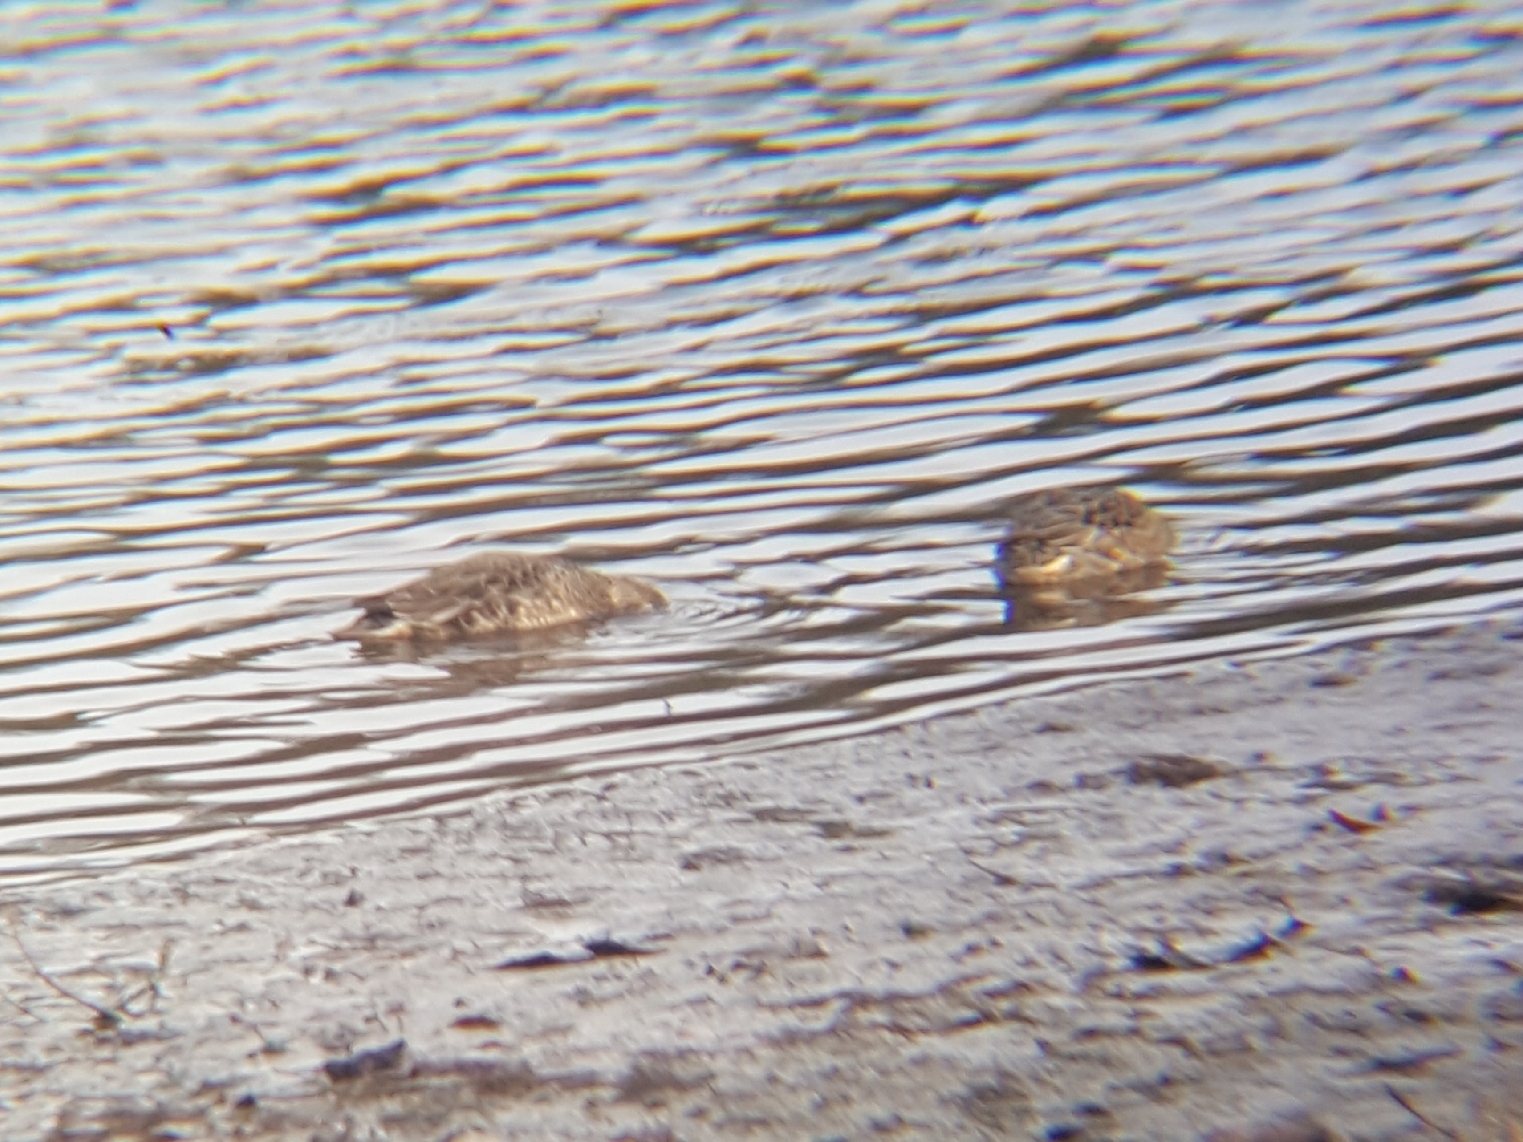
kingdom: Animalia
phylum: Chordata
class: Aves
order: Anseriformes
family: Anatidae
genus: Anas
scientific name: Anas carolinensis
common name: Green-winged teal
